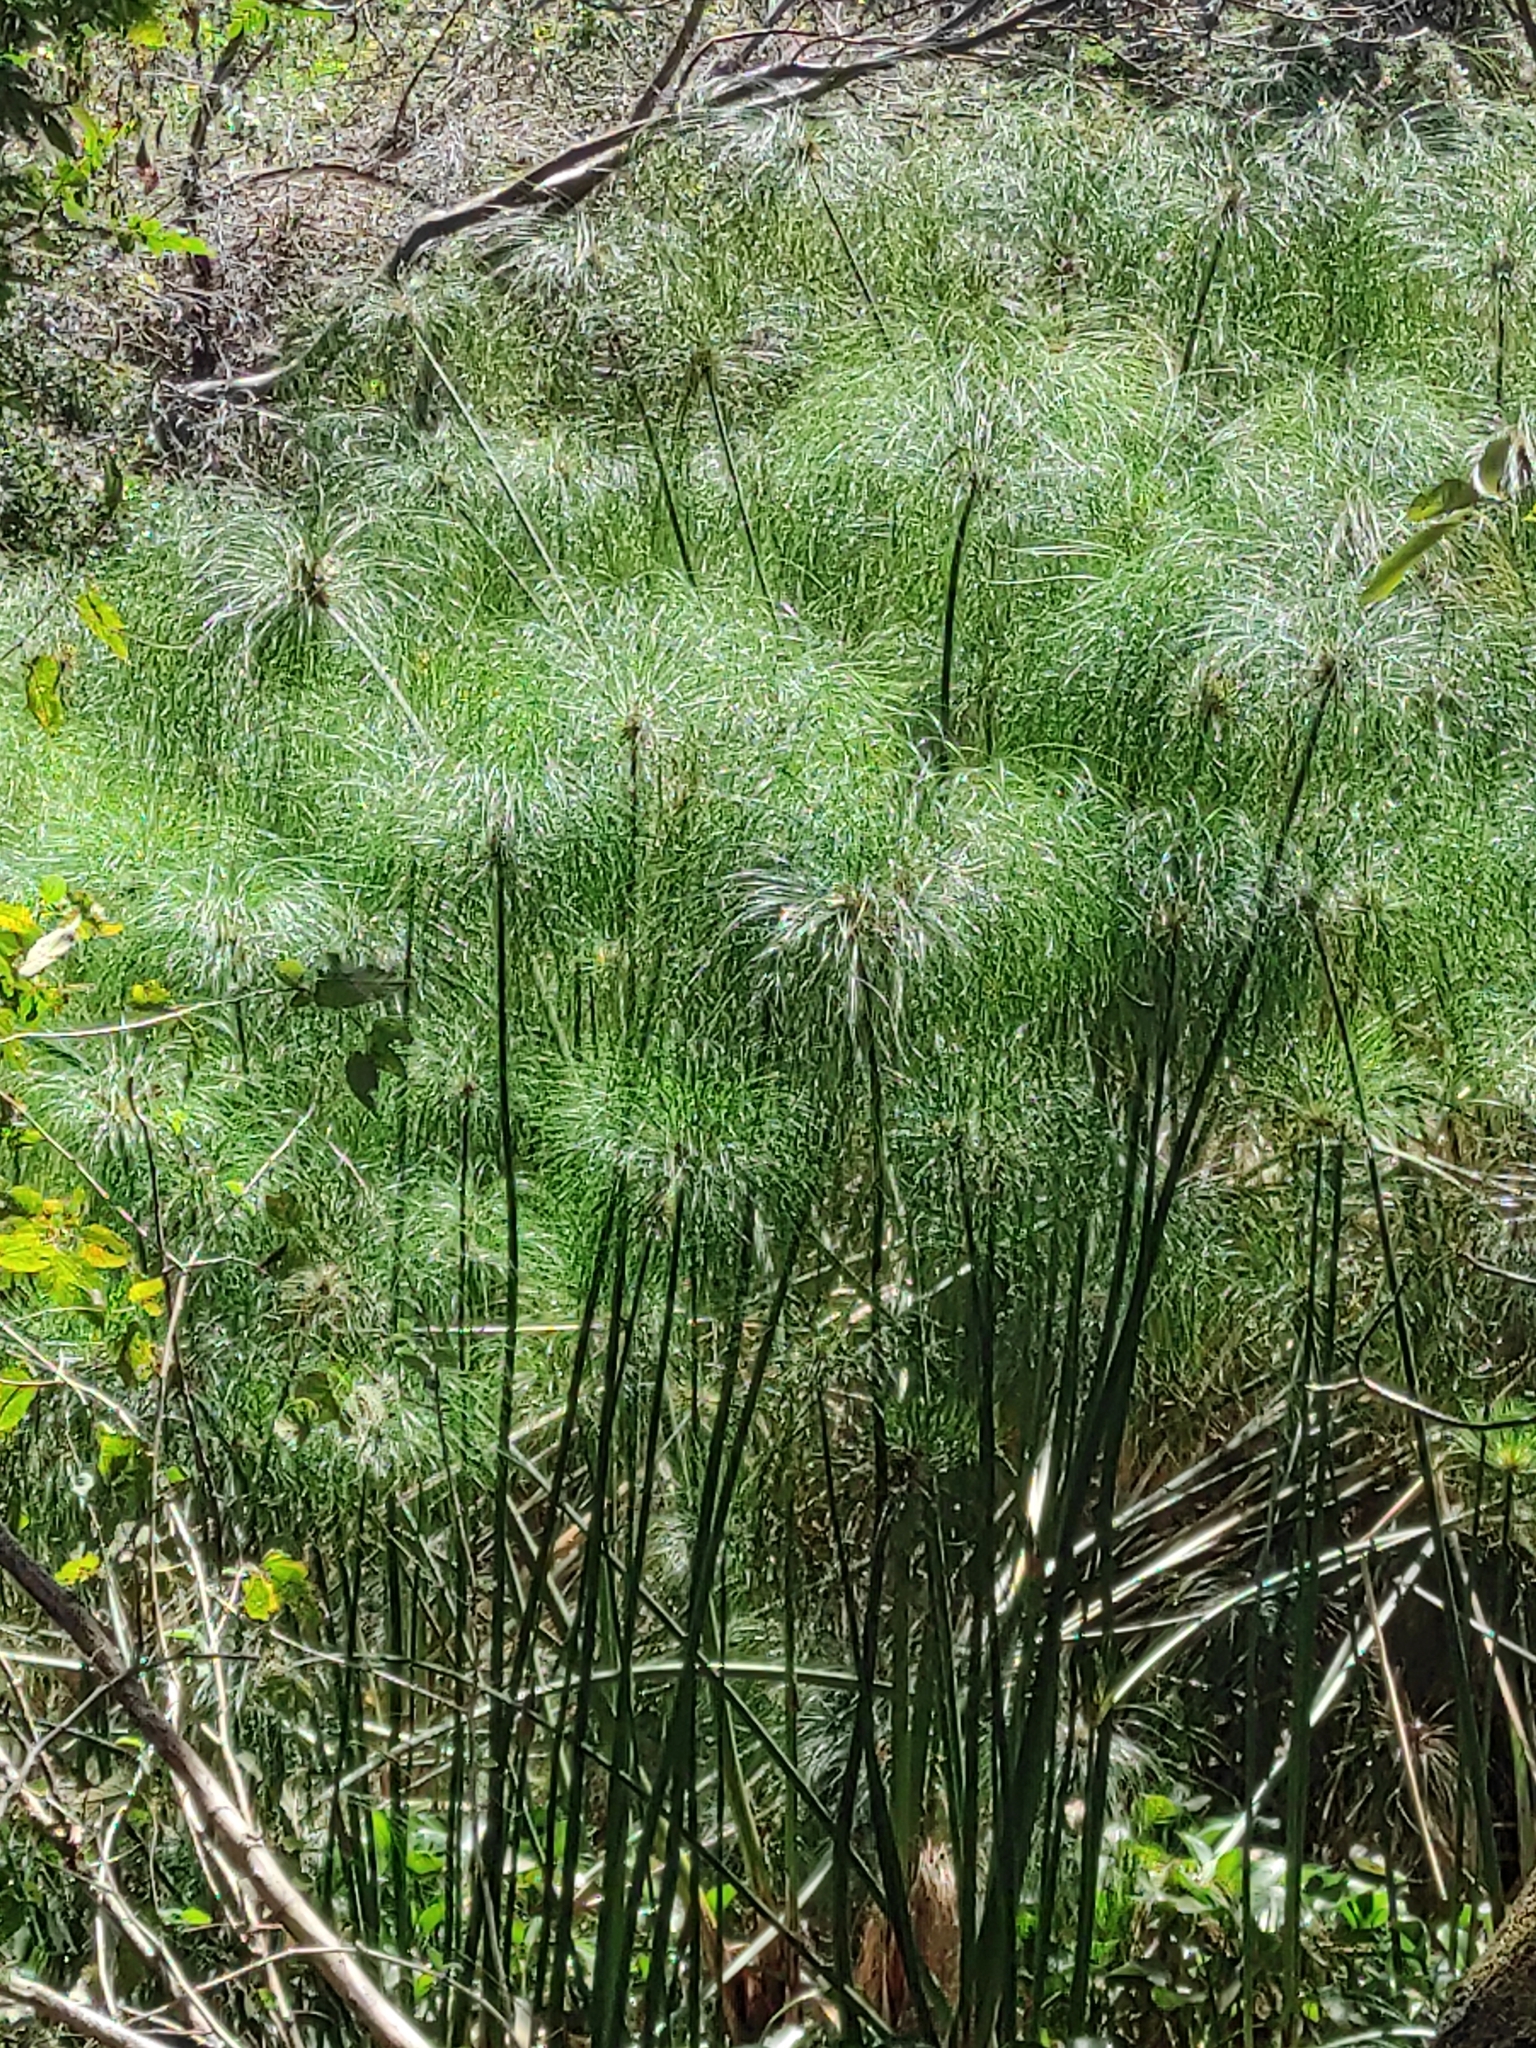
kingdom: Plantae
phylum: Tracheophyta
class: Liliopsida
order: Poales
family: Cyperaceae
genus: Cyperus
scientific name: Cyperus papyrus
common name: Papyrus
